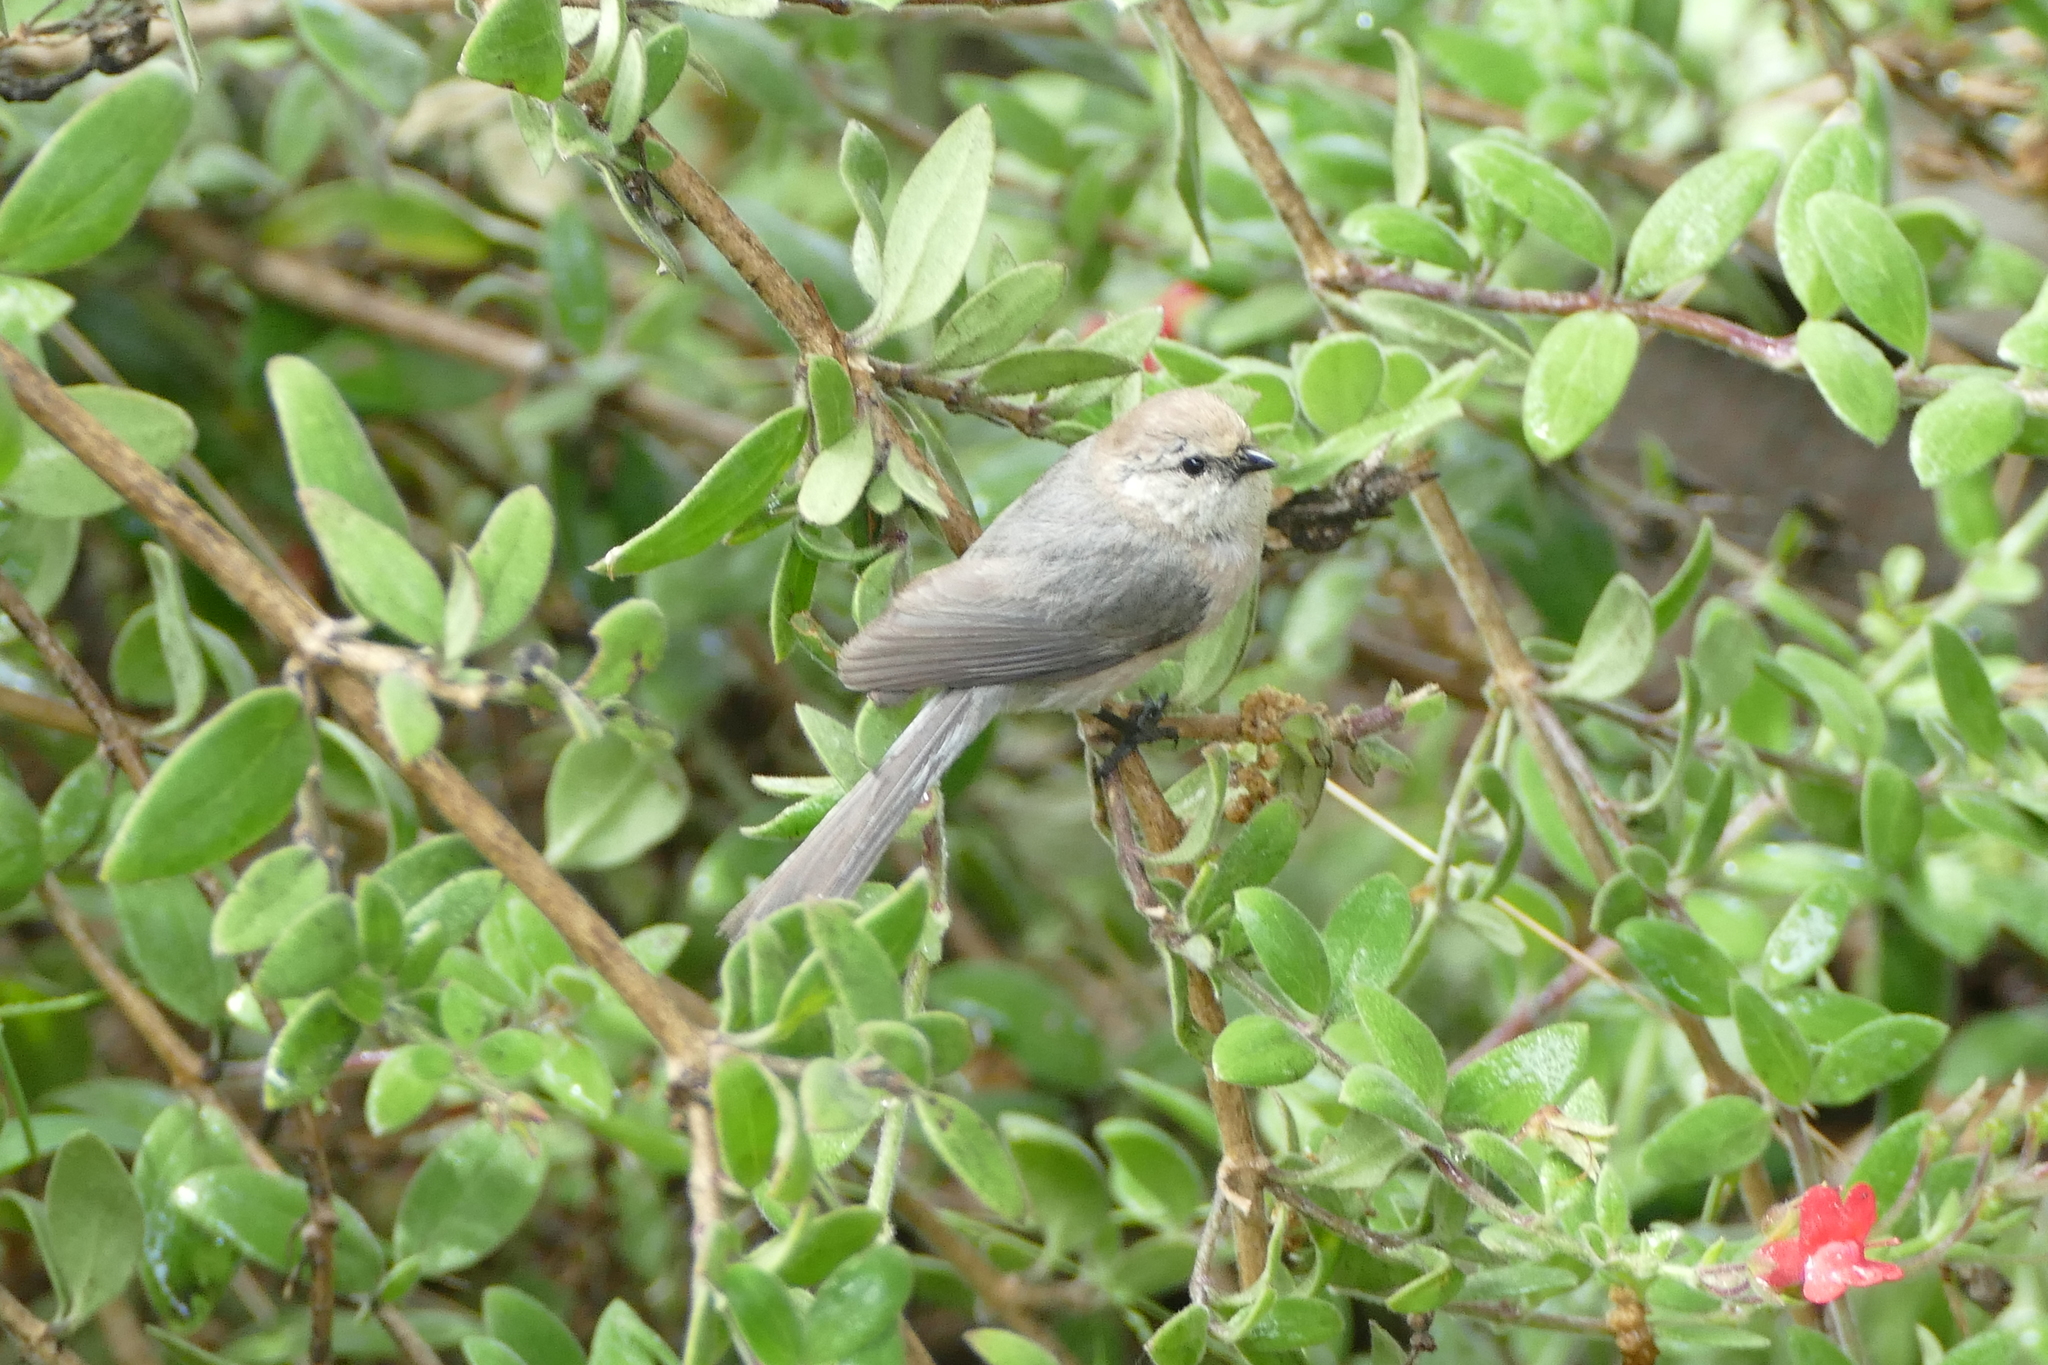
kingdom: Animalia
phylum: Chordata
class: Aves
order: Passeriformes
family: Aegithalidae
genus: Psaltriparus
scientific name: Psaltriparus minimus
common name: American bushtit
